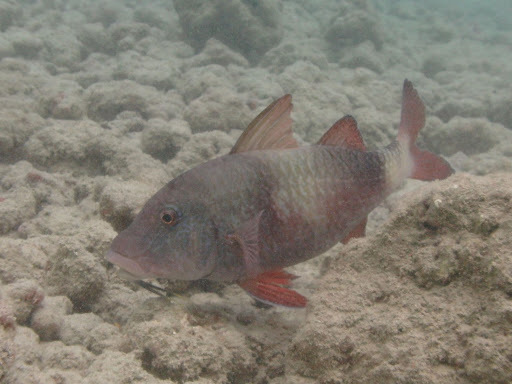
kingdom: Animalia
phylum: Chordata
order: Perciformes
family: Mullidae
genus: Parupeneus
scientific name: Parupeneus insularis
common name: Doublebar goatfish
